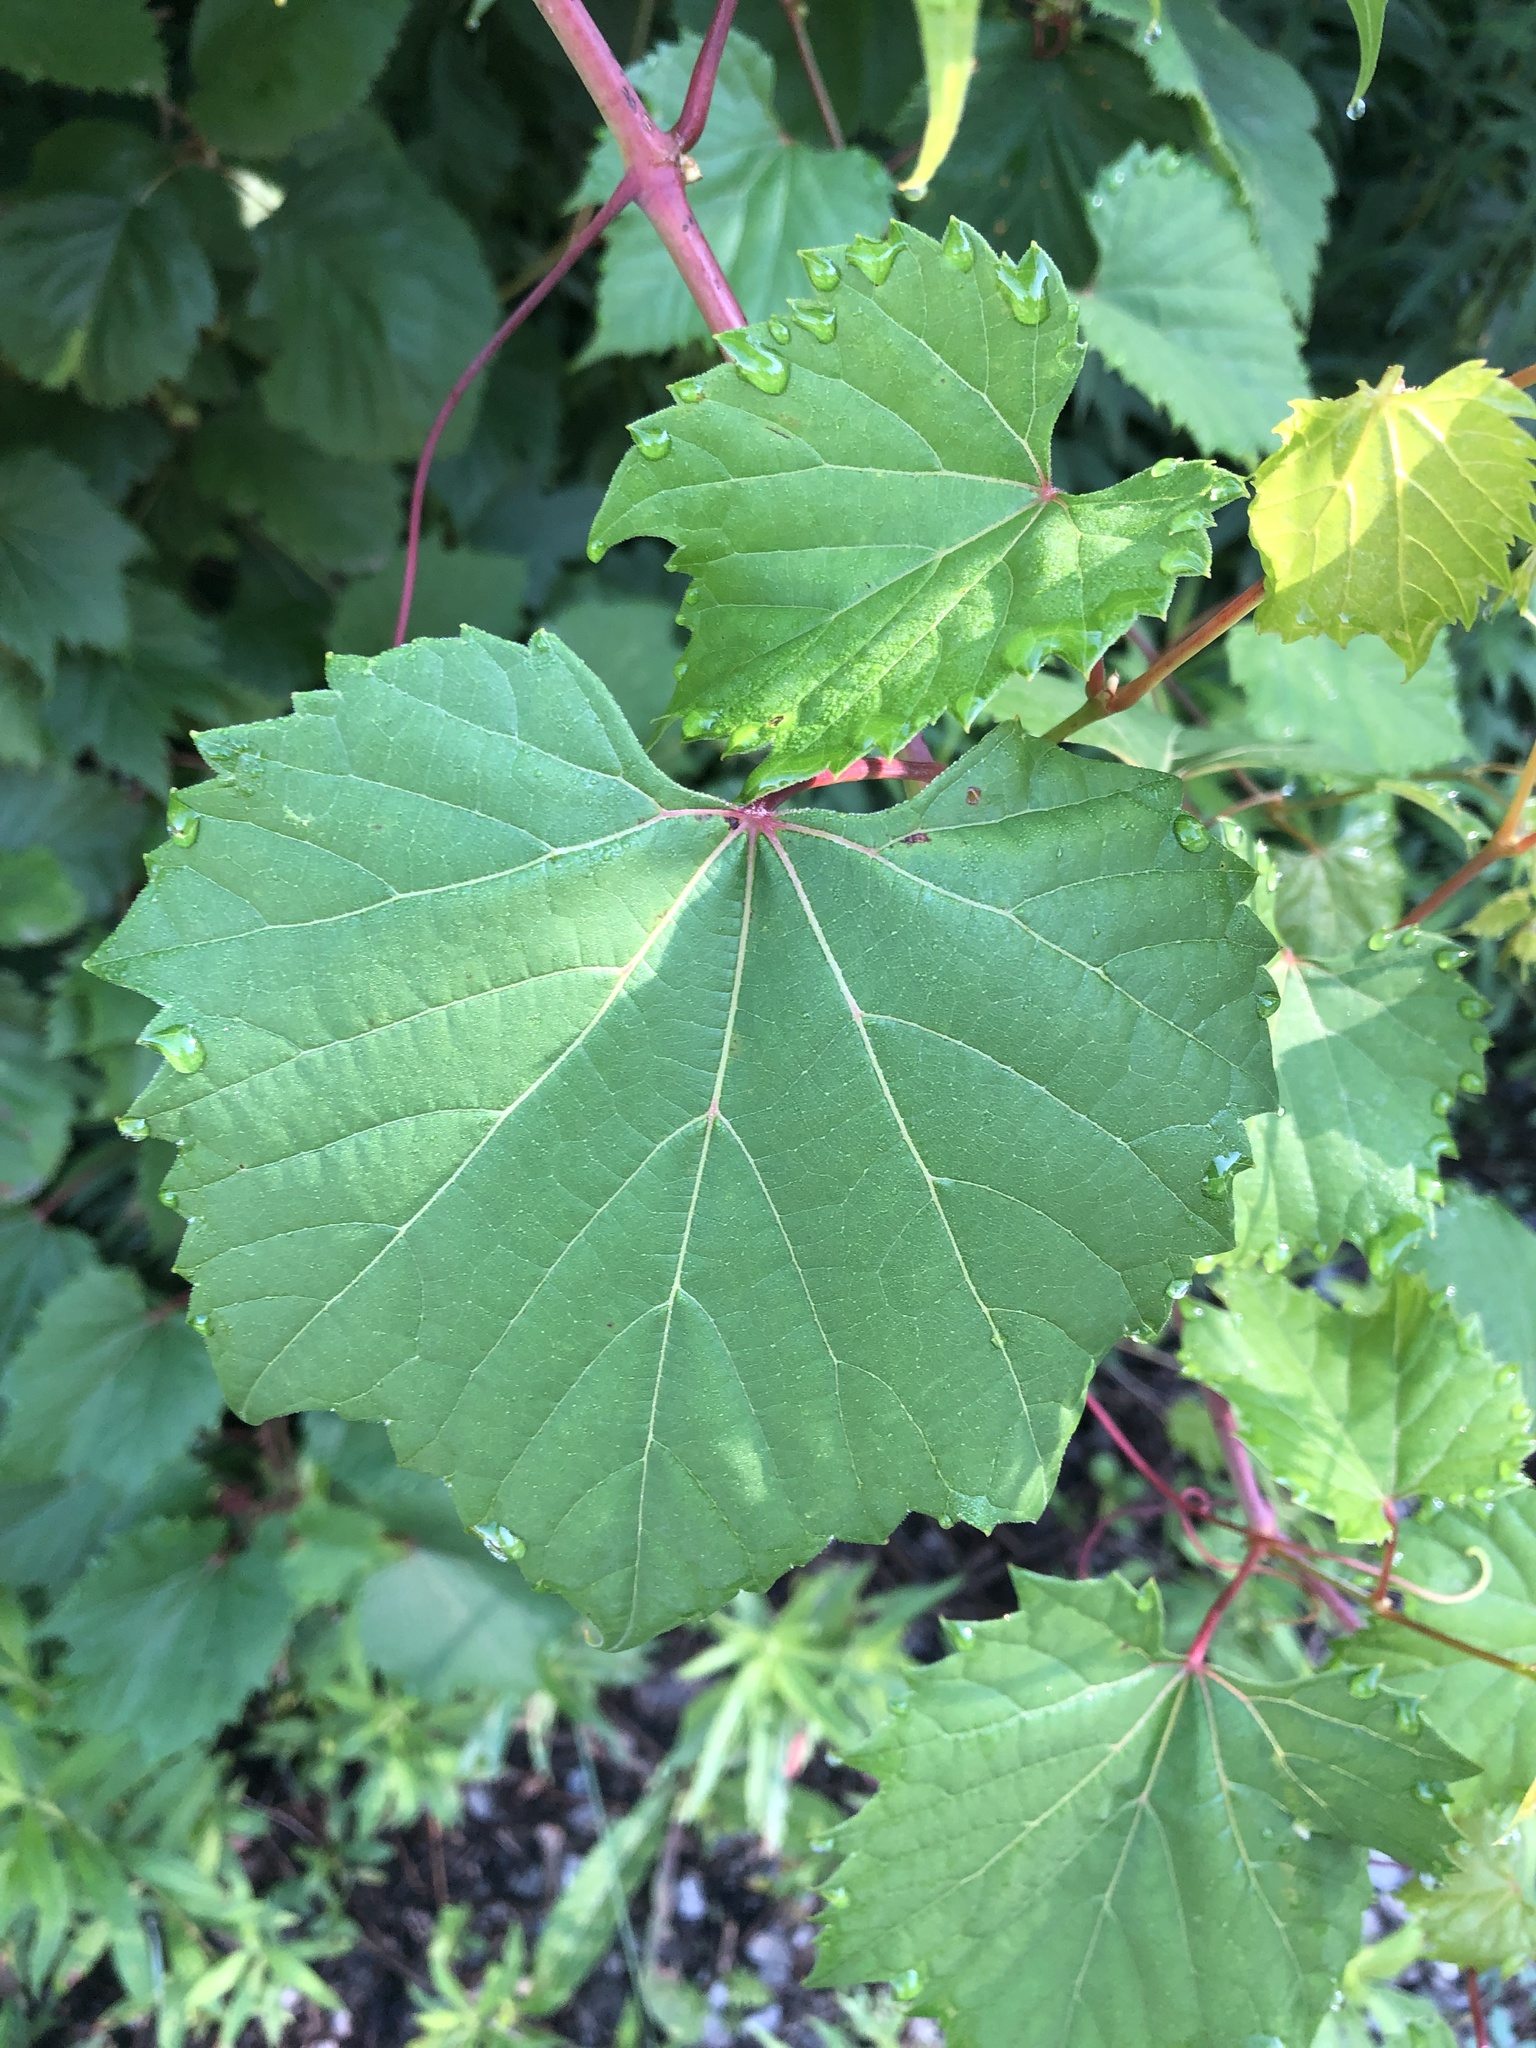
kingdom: Plantae
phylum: Tracheophyta
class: Magnoliopsida
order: Vitales
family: Vitaceae
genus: Vitis
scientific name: Vitis riparia
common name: Frost grape
